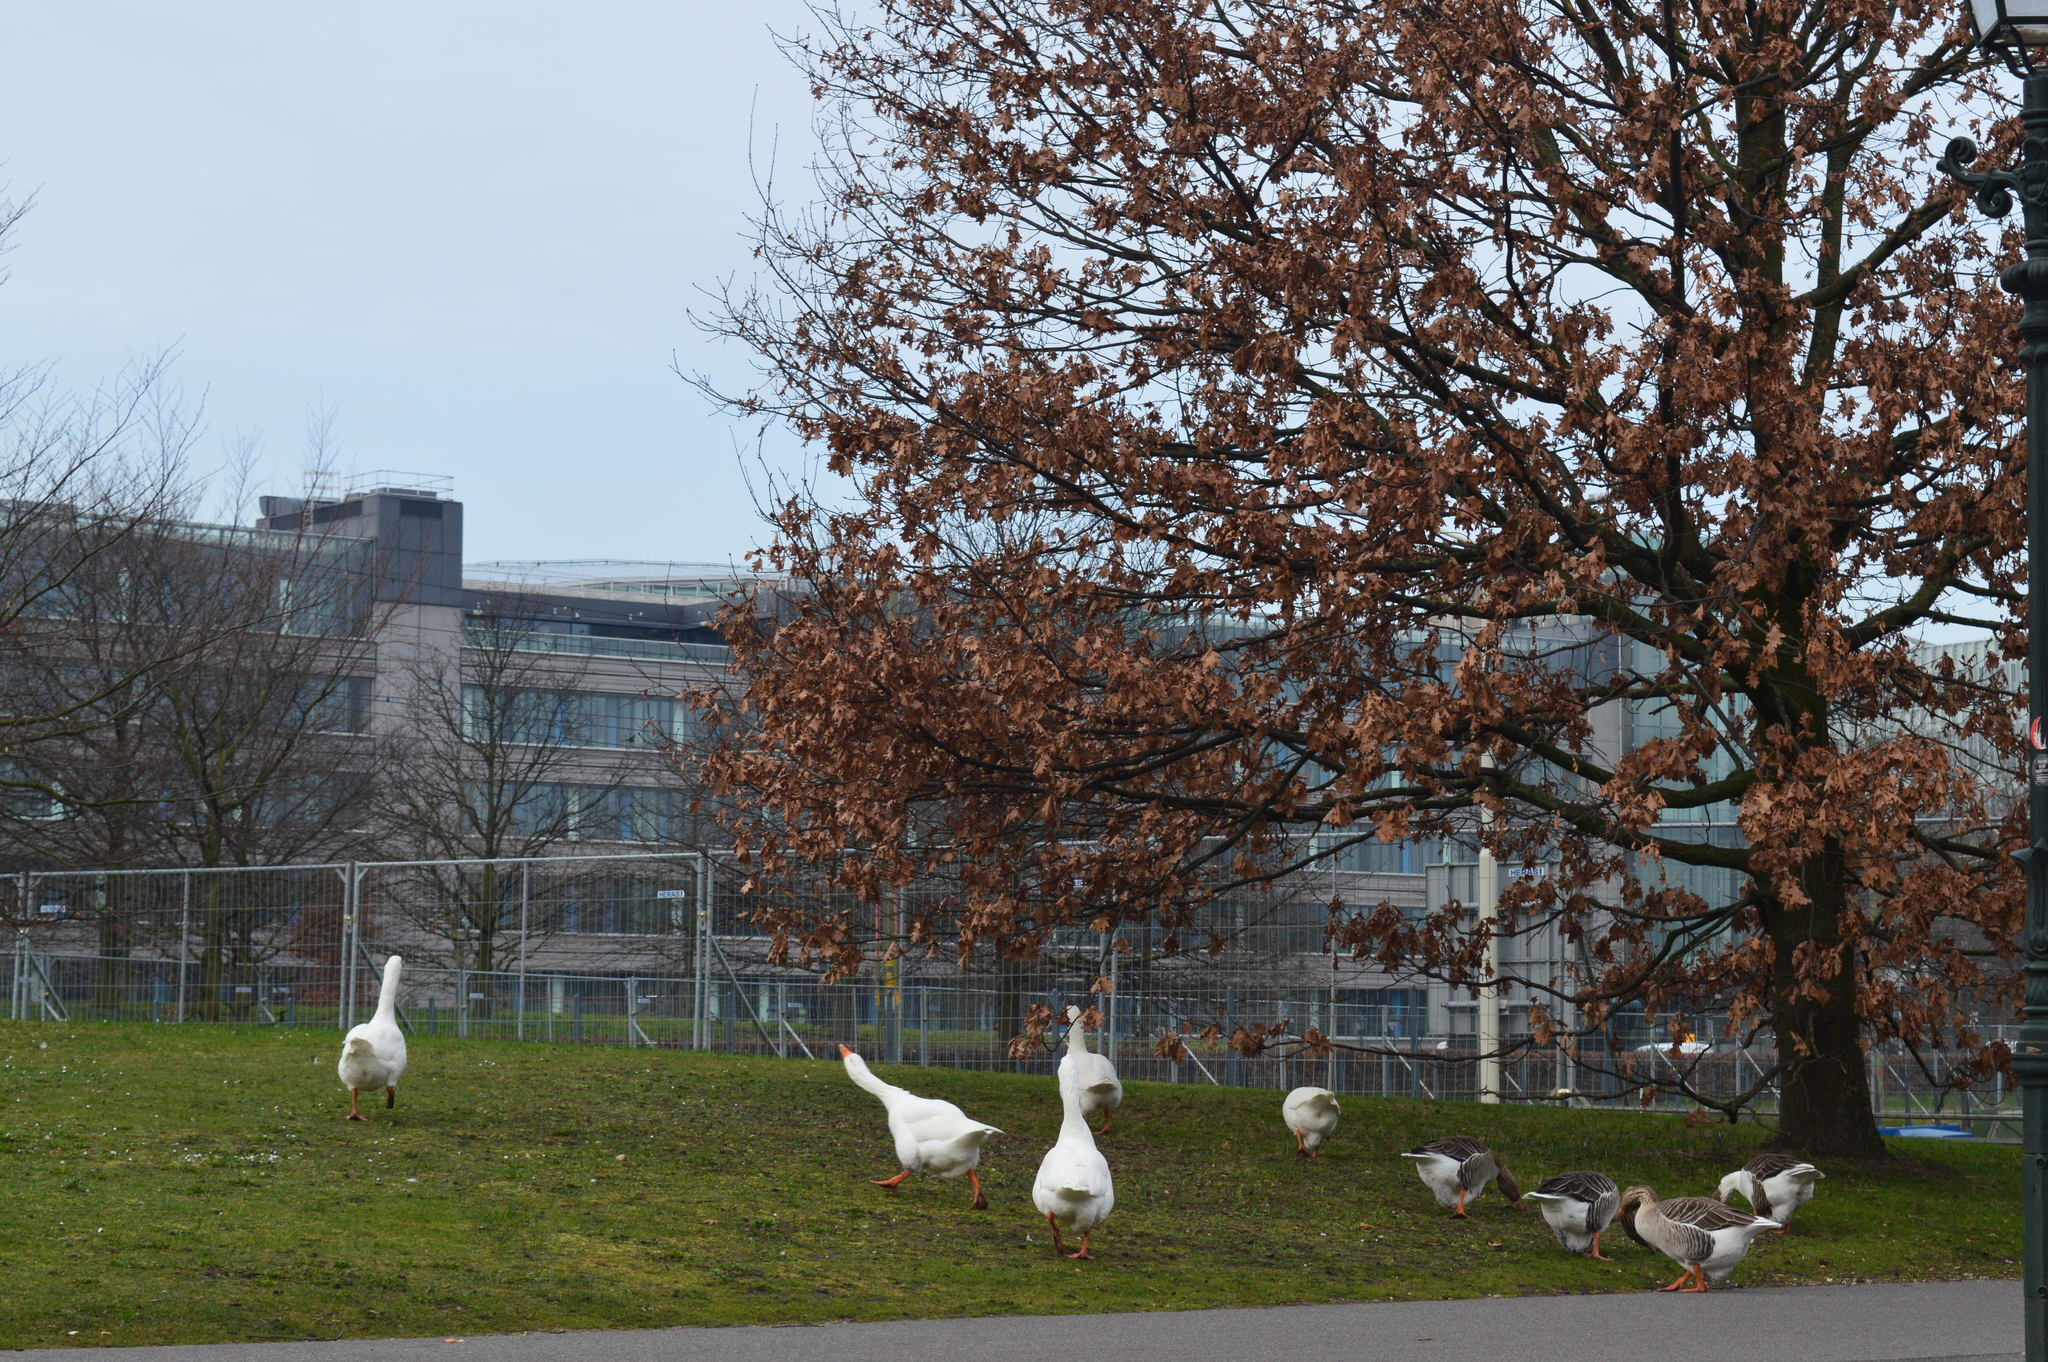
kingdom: Animalia
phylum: Chordata
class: Aves
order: Anseriformes
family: Anatidae
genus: Anser
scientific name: Anser anser
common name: Greylag goose
